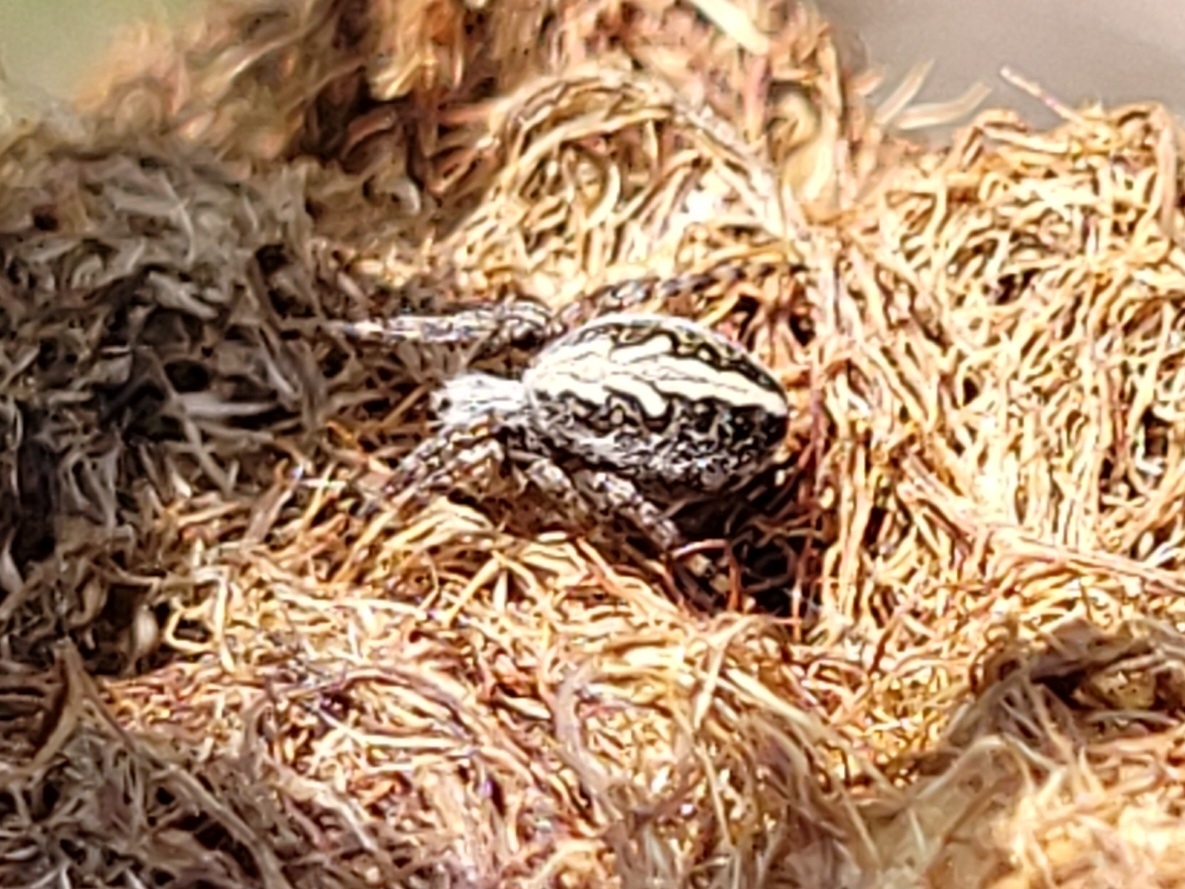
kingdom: Animalia
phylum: Arthropoda
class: Arachnida
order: Araneae
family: Araneidae
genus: Aculepeira
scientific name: Aculepeira ceropegia
